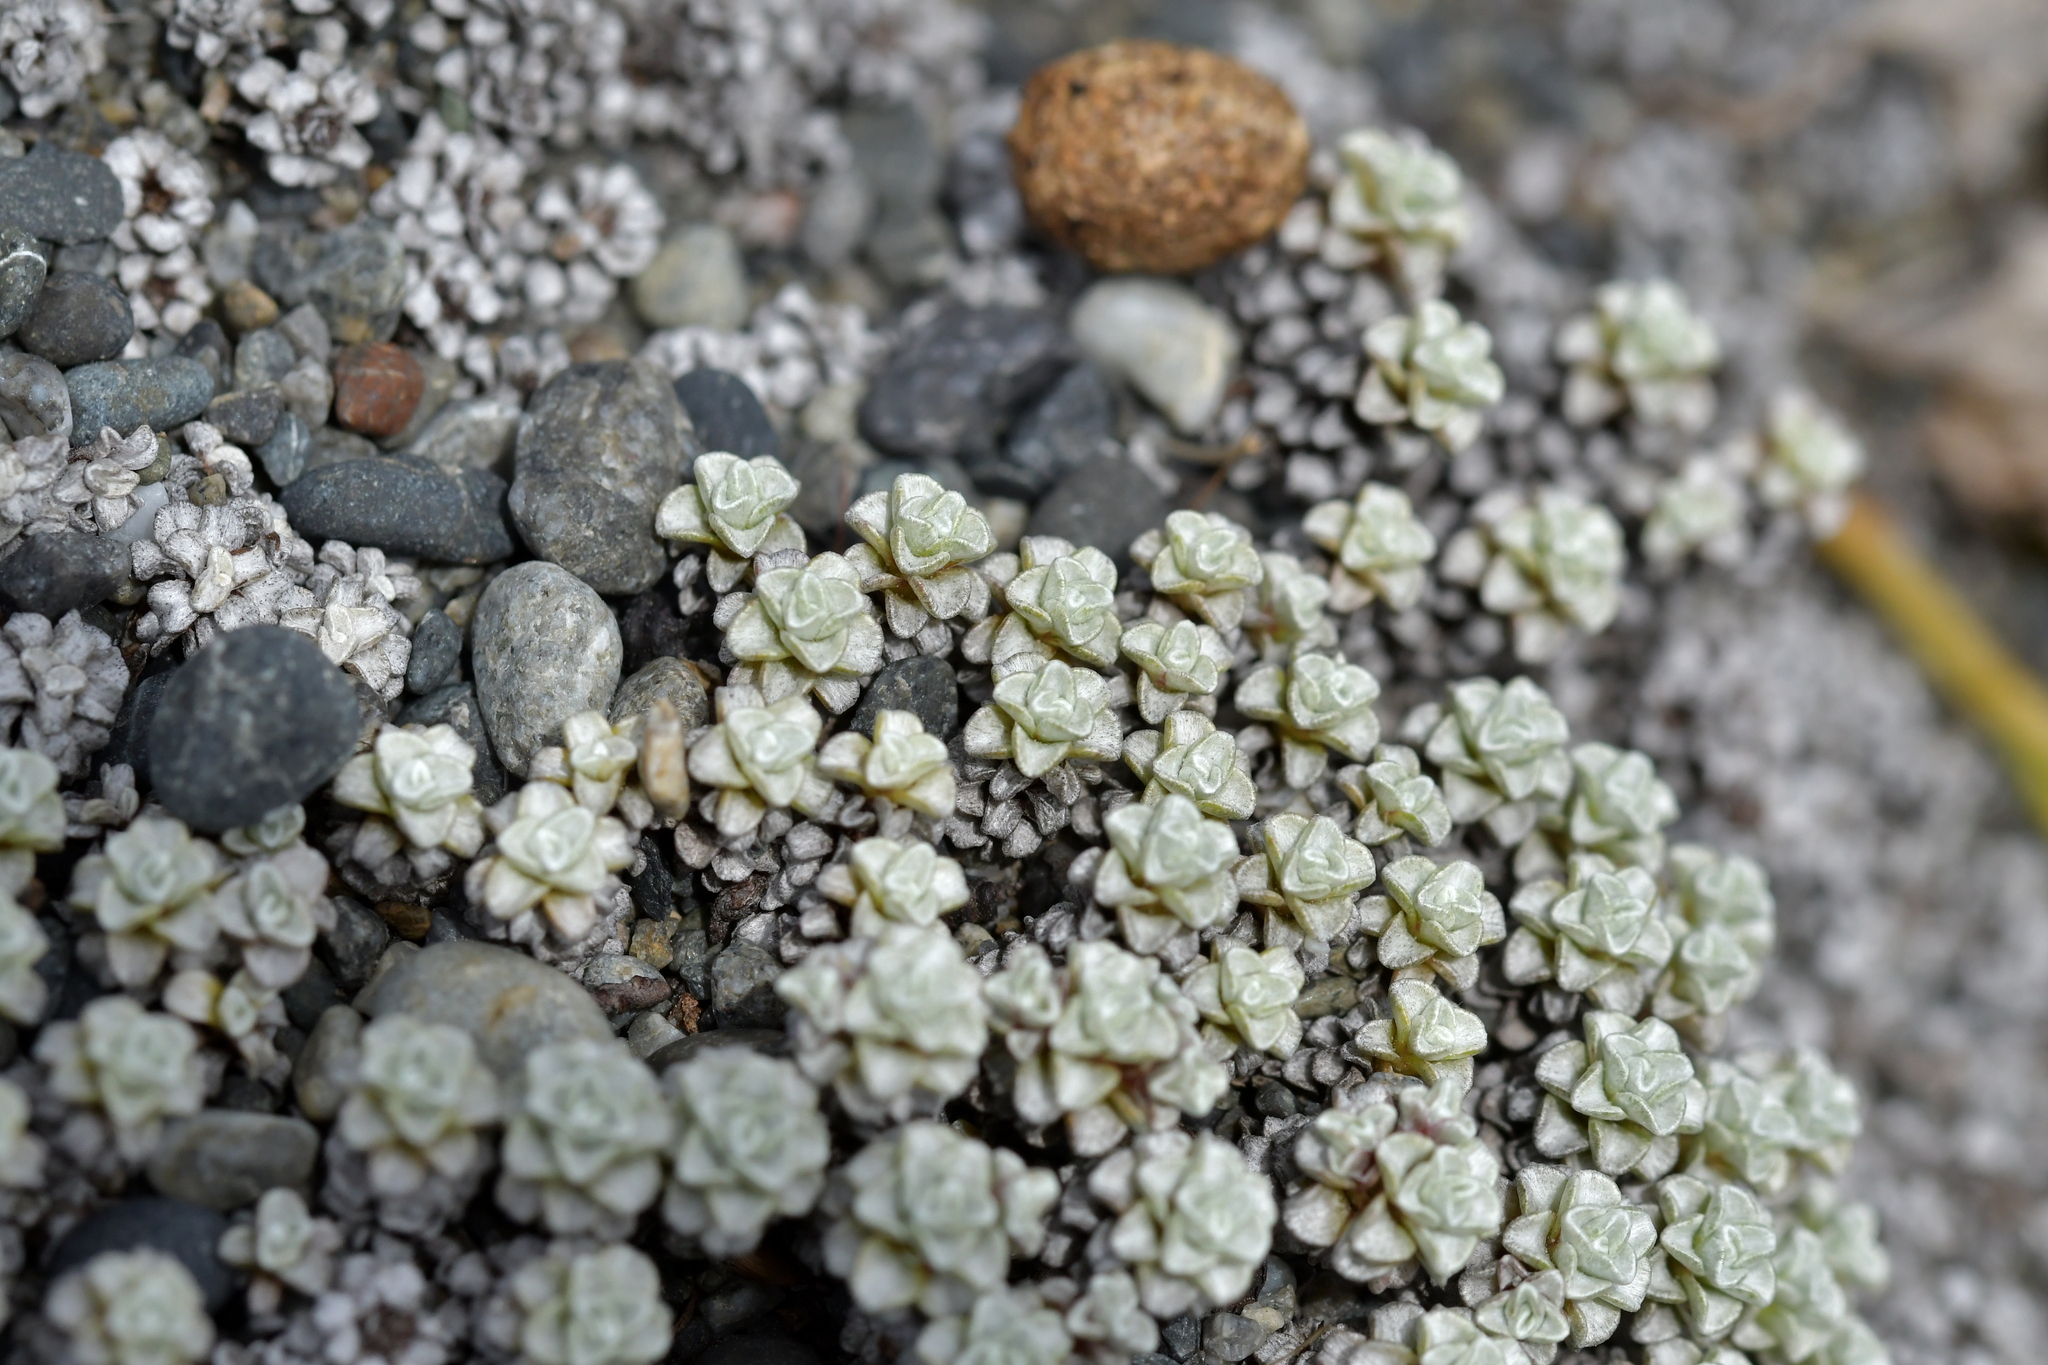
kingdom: Plantae
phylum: Tracheophyta
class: Magnoliopsida
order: Asterales
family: Asteraceae
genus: Raoulia
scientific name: Raoulia hookeri
